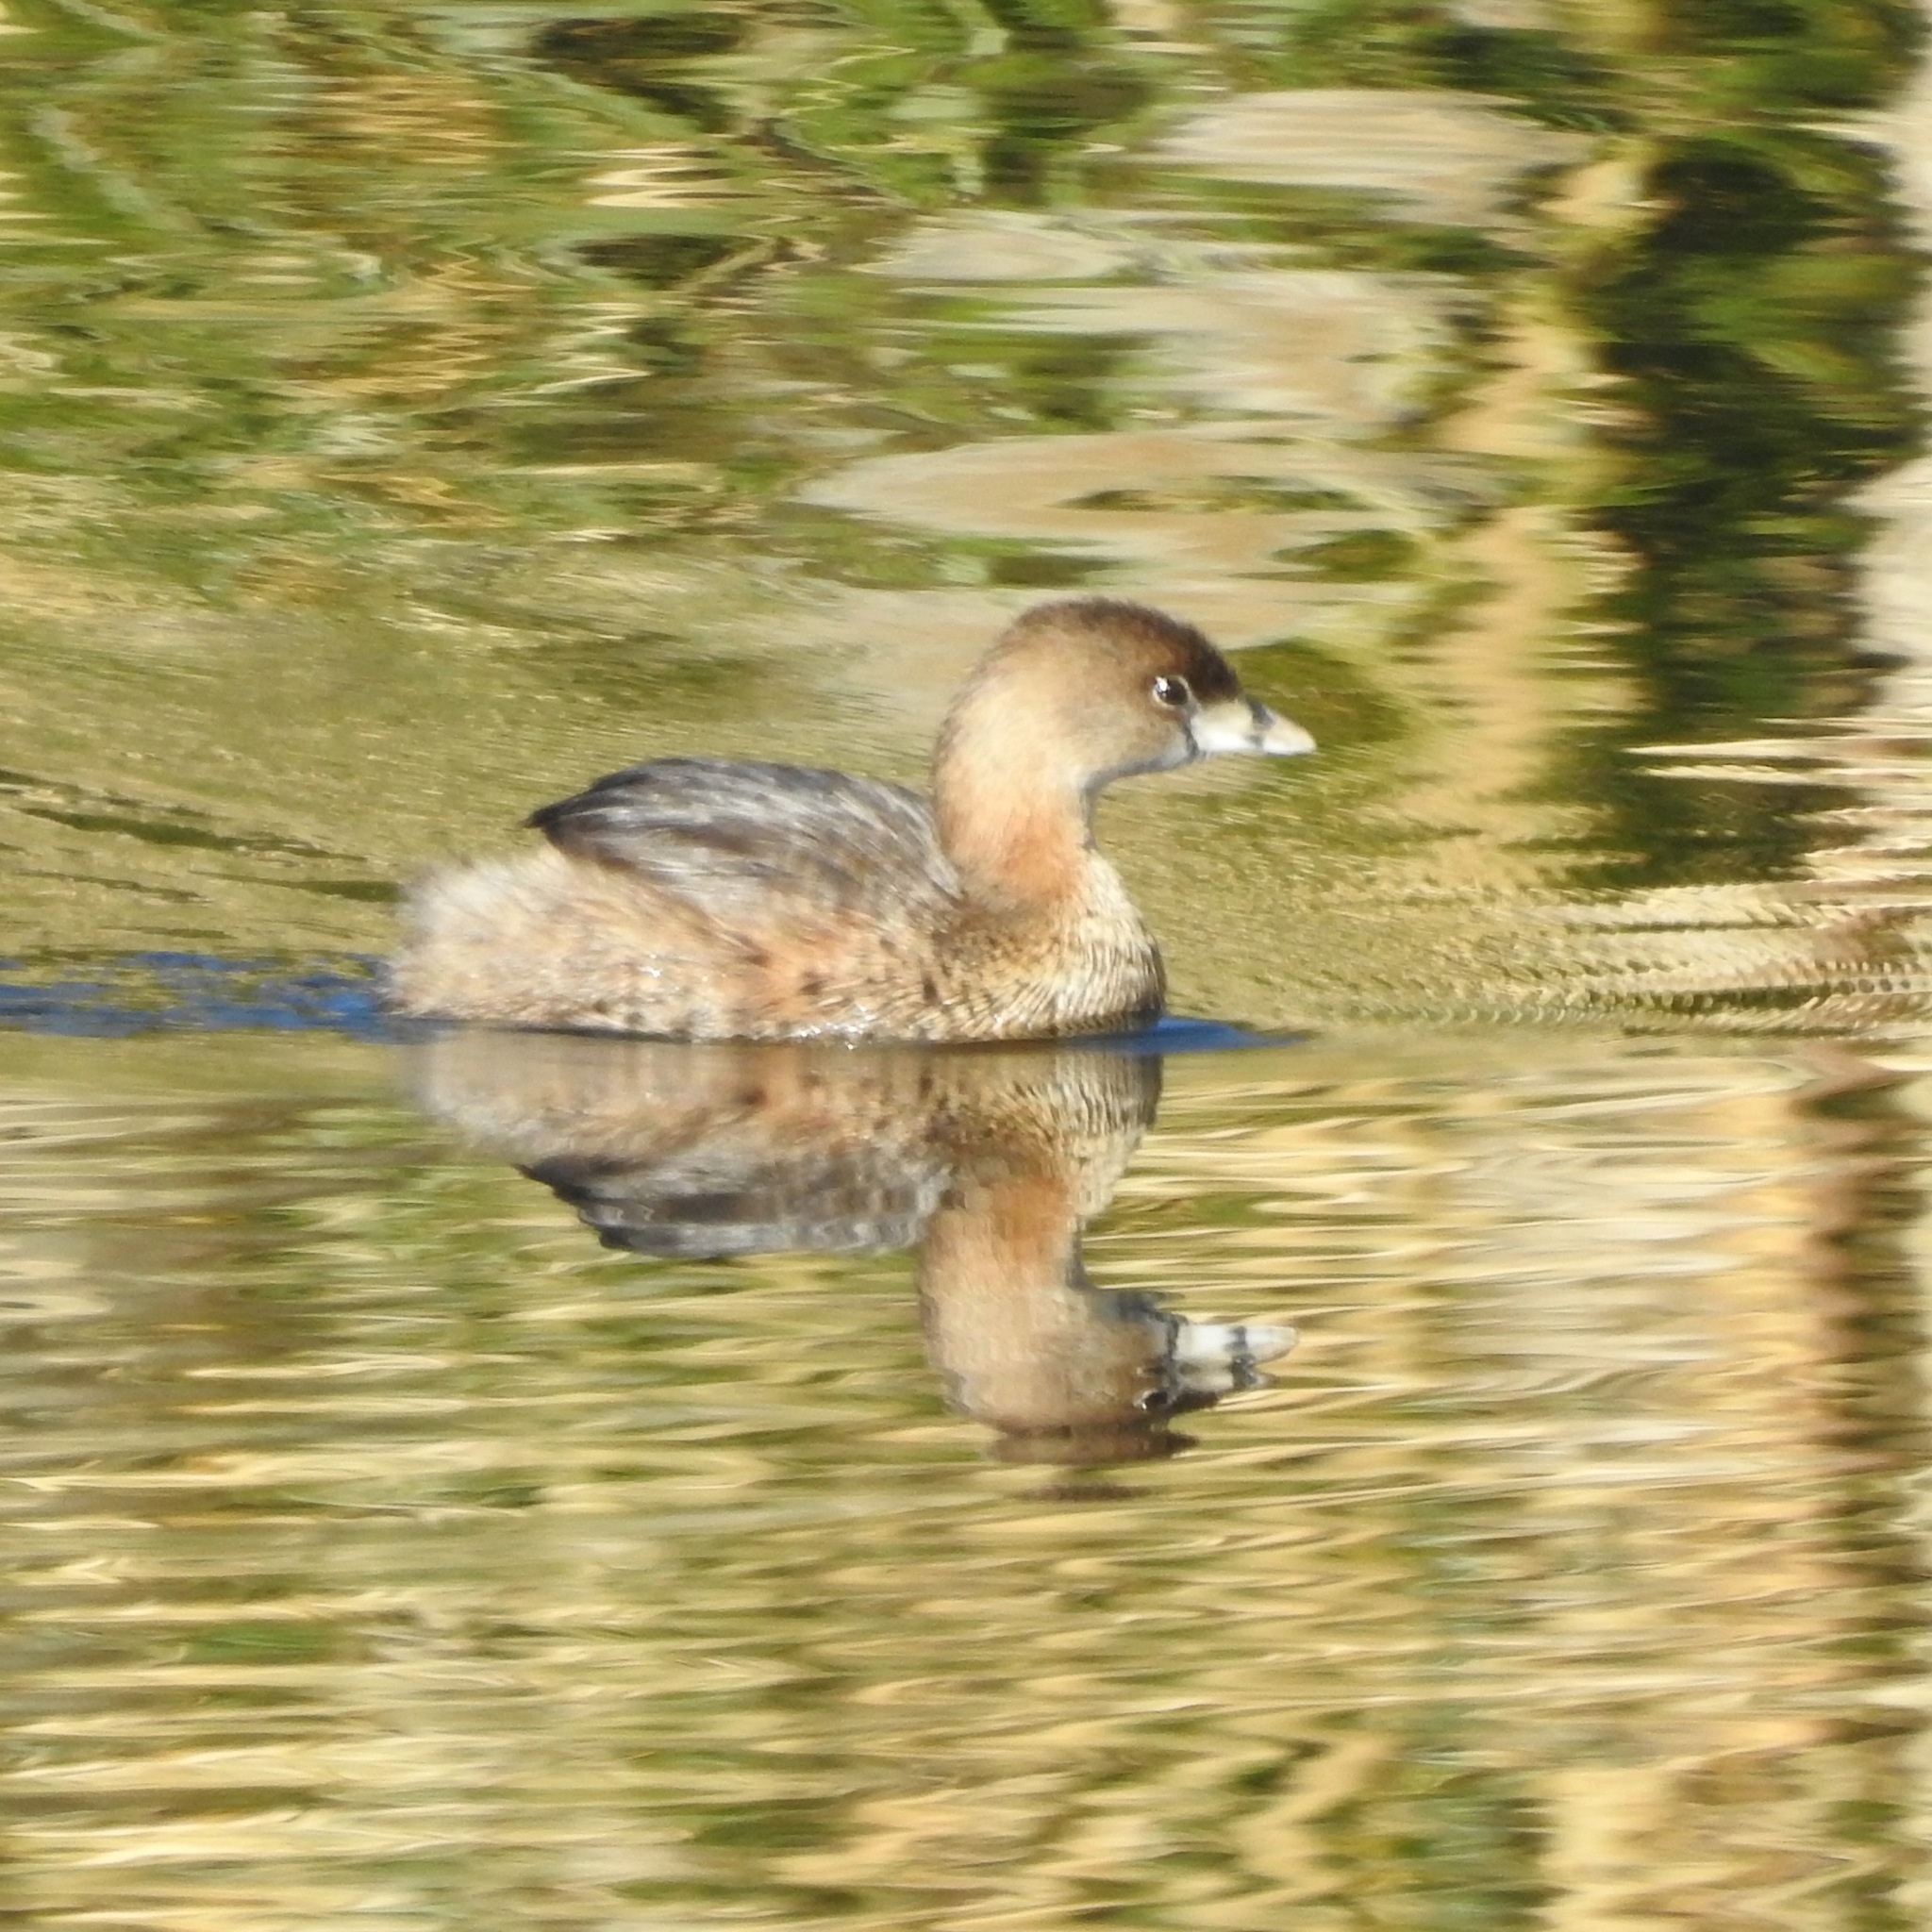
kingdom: Animalia
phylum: Chordata
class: Aves
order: Podicipediformes
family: Podicipedidae
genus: Podilymbus
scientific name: Podilymbus podiceps
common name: Pied-billed grebe
